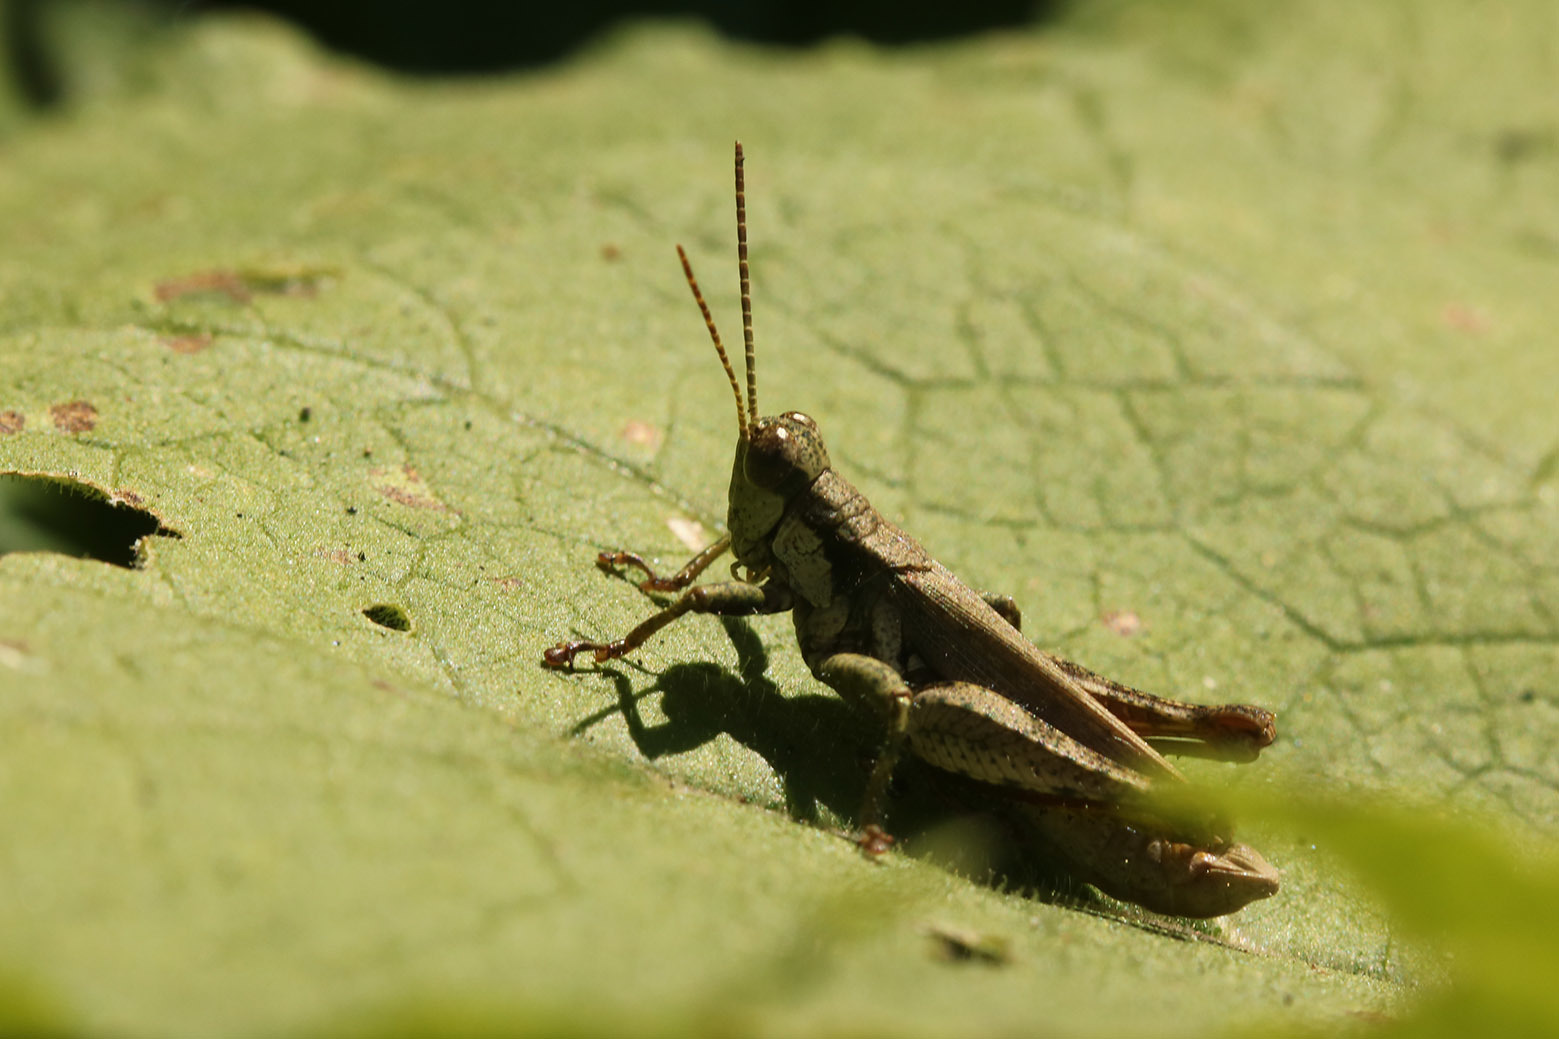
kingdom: Animalia
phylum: Arthropoda
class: Insecta
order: Orthoptera
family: Acrididae
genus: Ronderosia
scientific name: Ronderosia bergii
